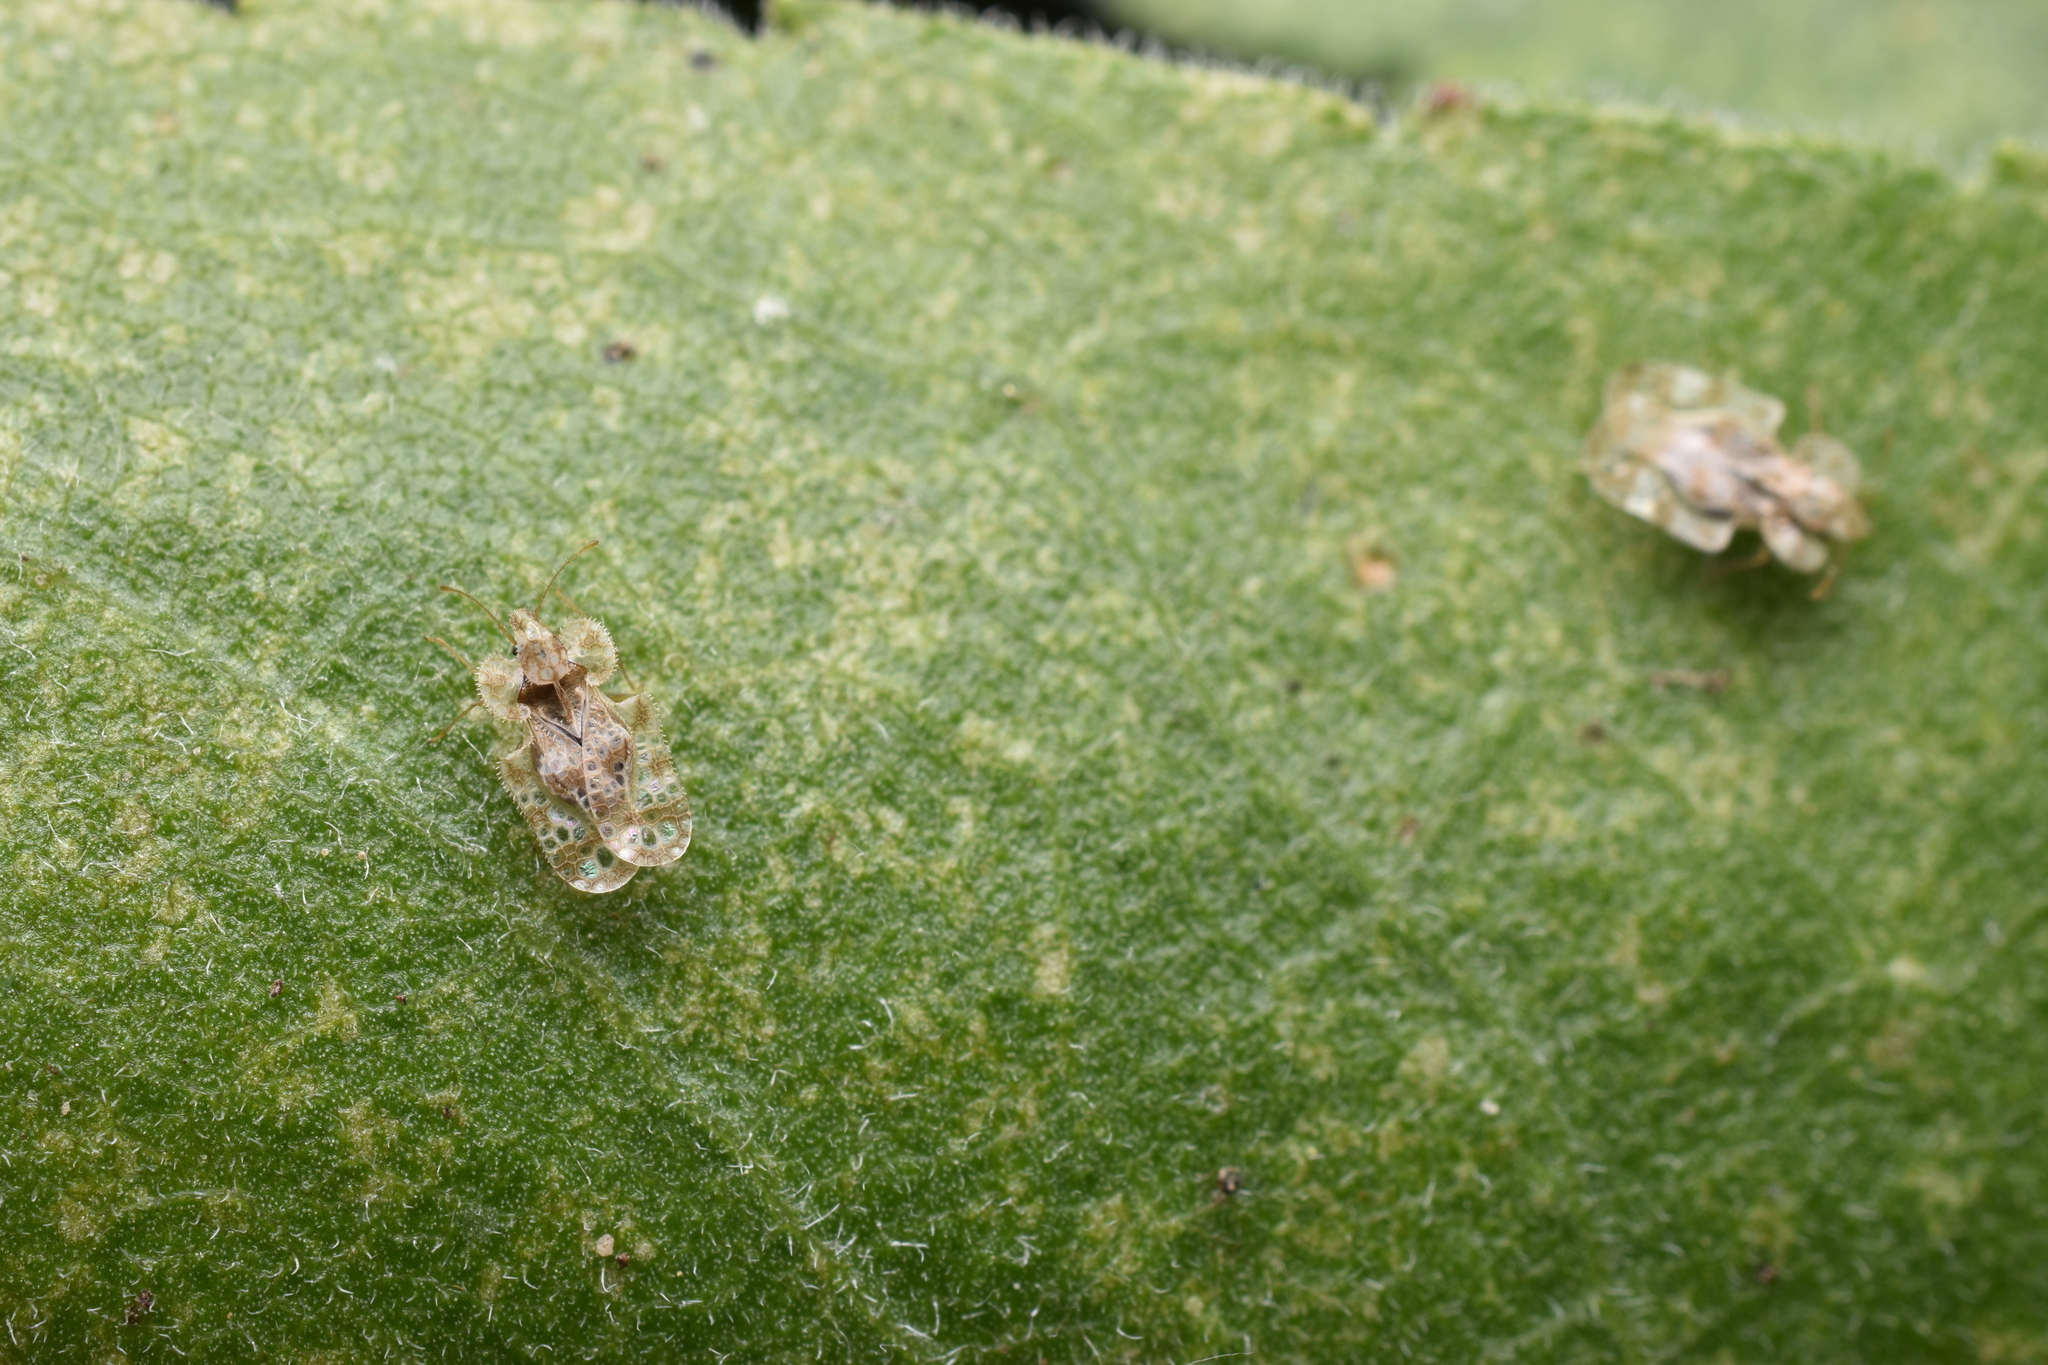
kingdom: Animalia
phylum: Arthropoda
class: Insecta
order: Hemiptera
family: Tingidae
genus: Corythucha
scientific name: Corythucha marmorata
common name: Chrysanthemum lace bug
